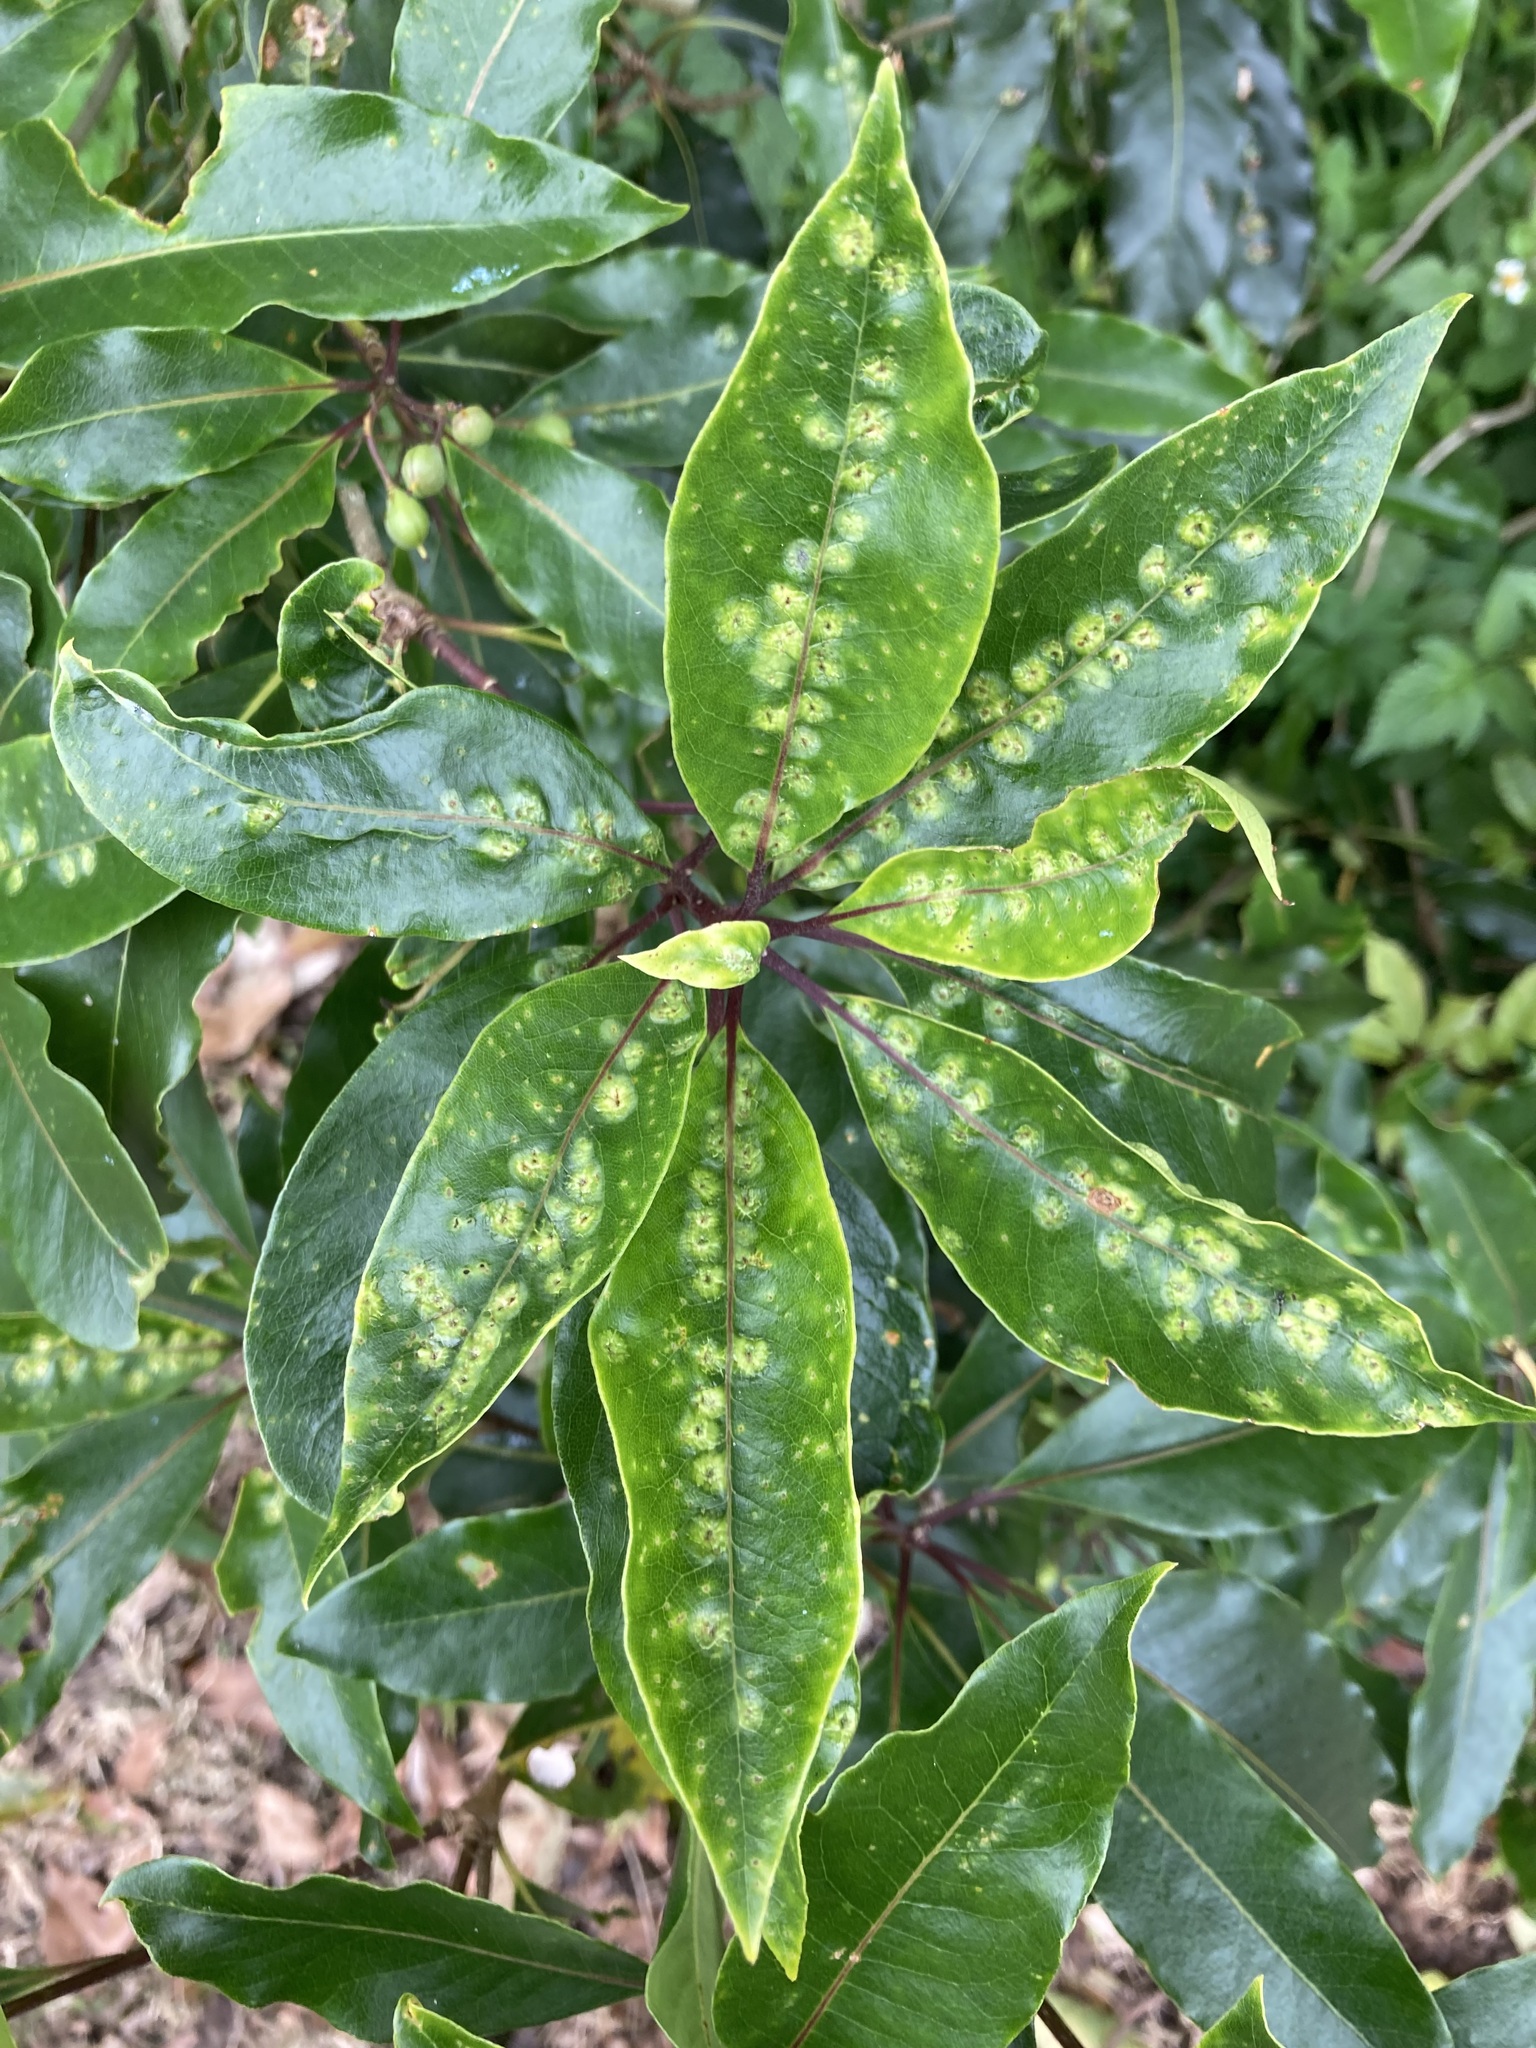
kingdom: Animalia
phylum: Arthropoda
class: Insecta
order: Diptera
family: Agromyzidae
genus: Phytoliriomyza
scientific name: Phytoliriomyza pittosporophylli
